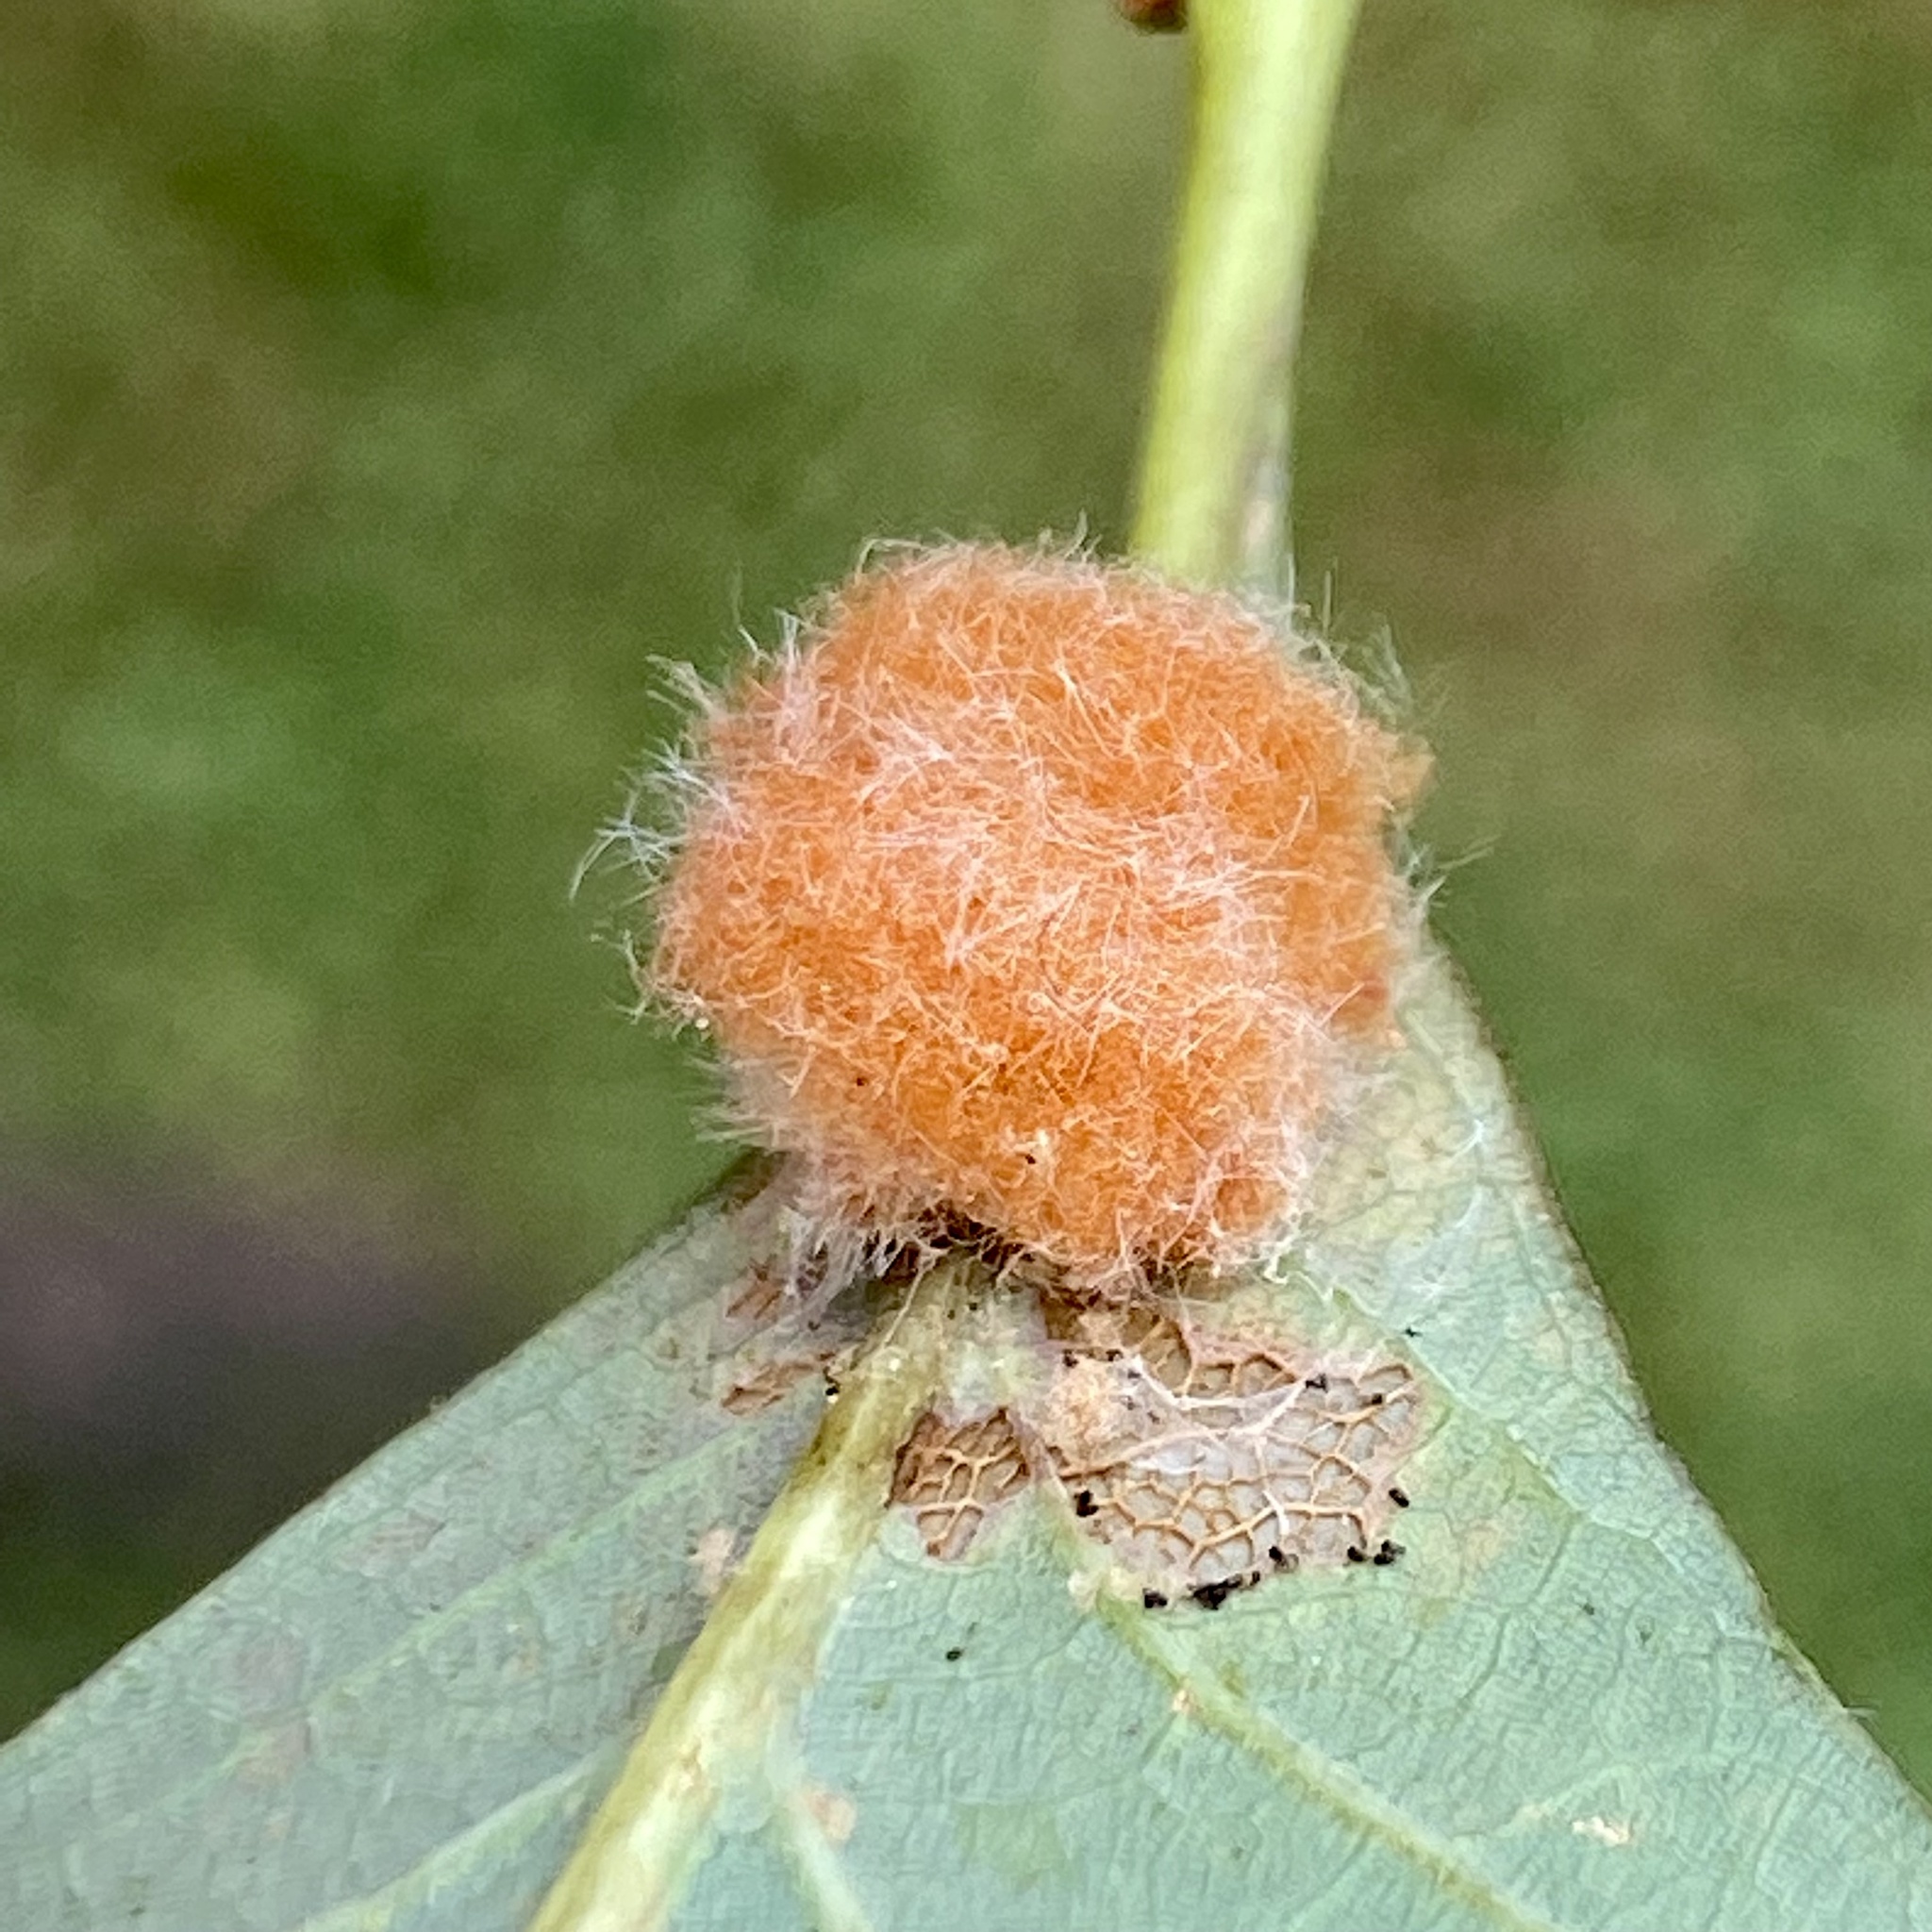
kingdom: Animalia
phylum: Arthropoda
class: Insecta
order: Hymenoptera
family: Cynipidae
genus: Andricus
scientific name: Andricus quercusflocci
